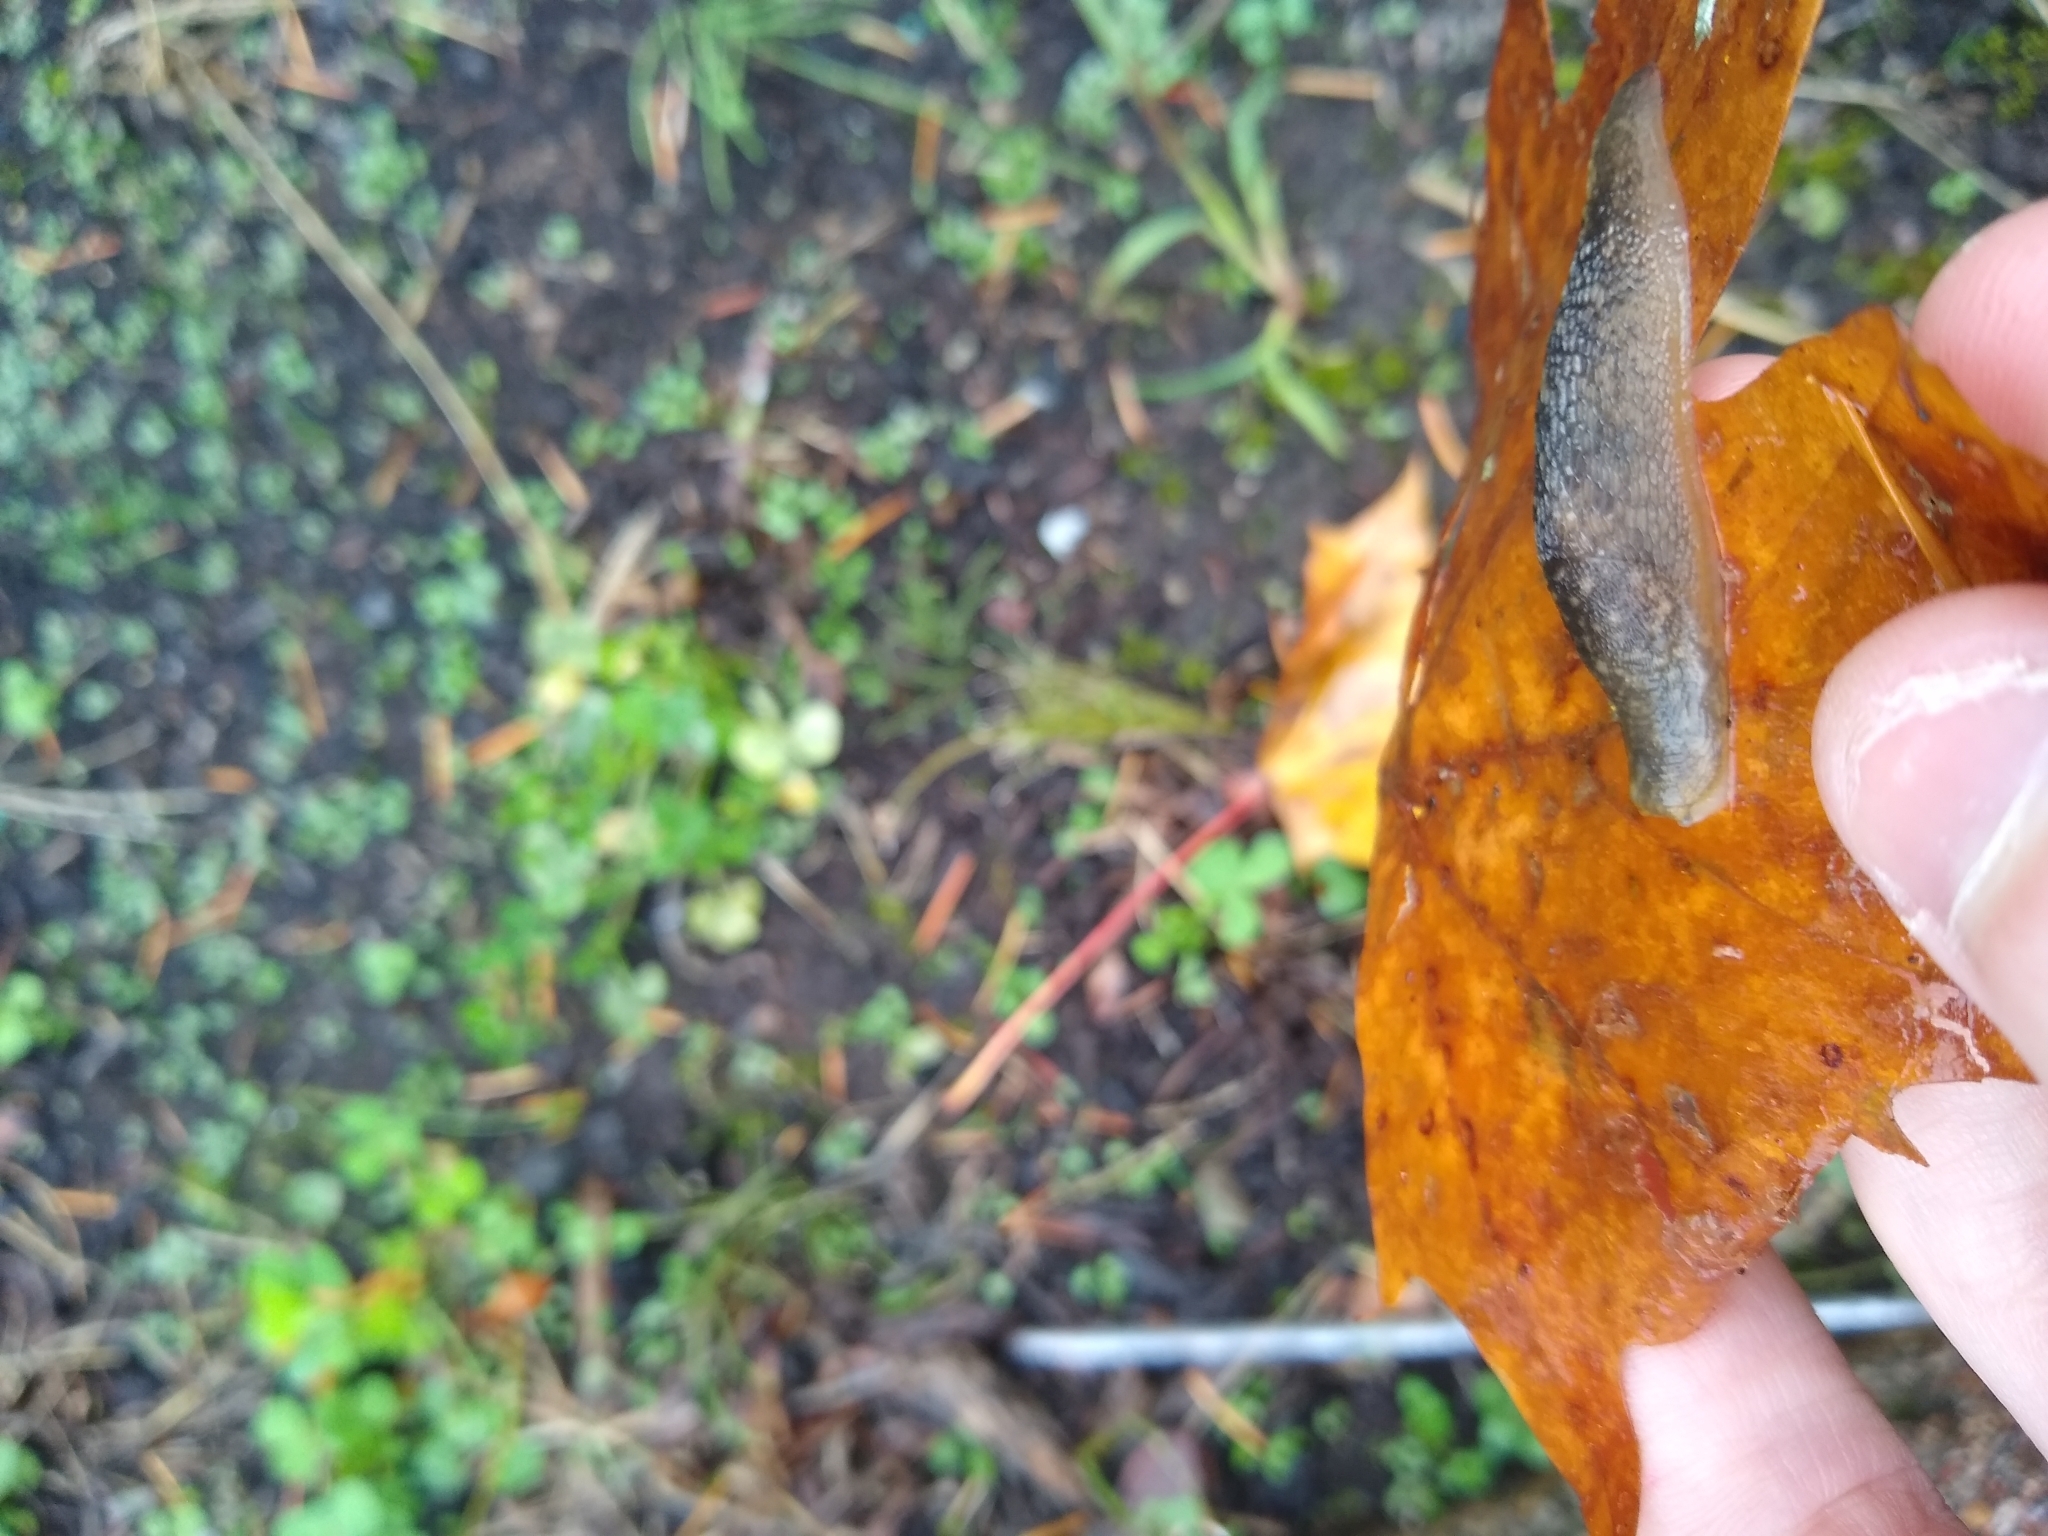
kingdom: Animalia
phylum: Mollusca
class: Gastropoda
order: Stylommatophora
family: Limacidae
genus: Limacus
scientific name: Limacus flavus
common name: Yellow gardenslug
